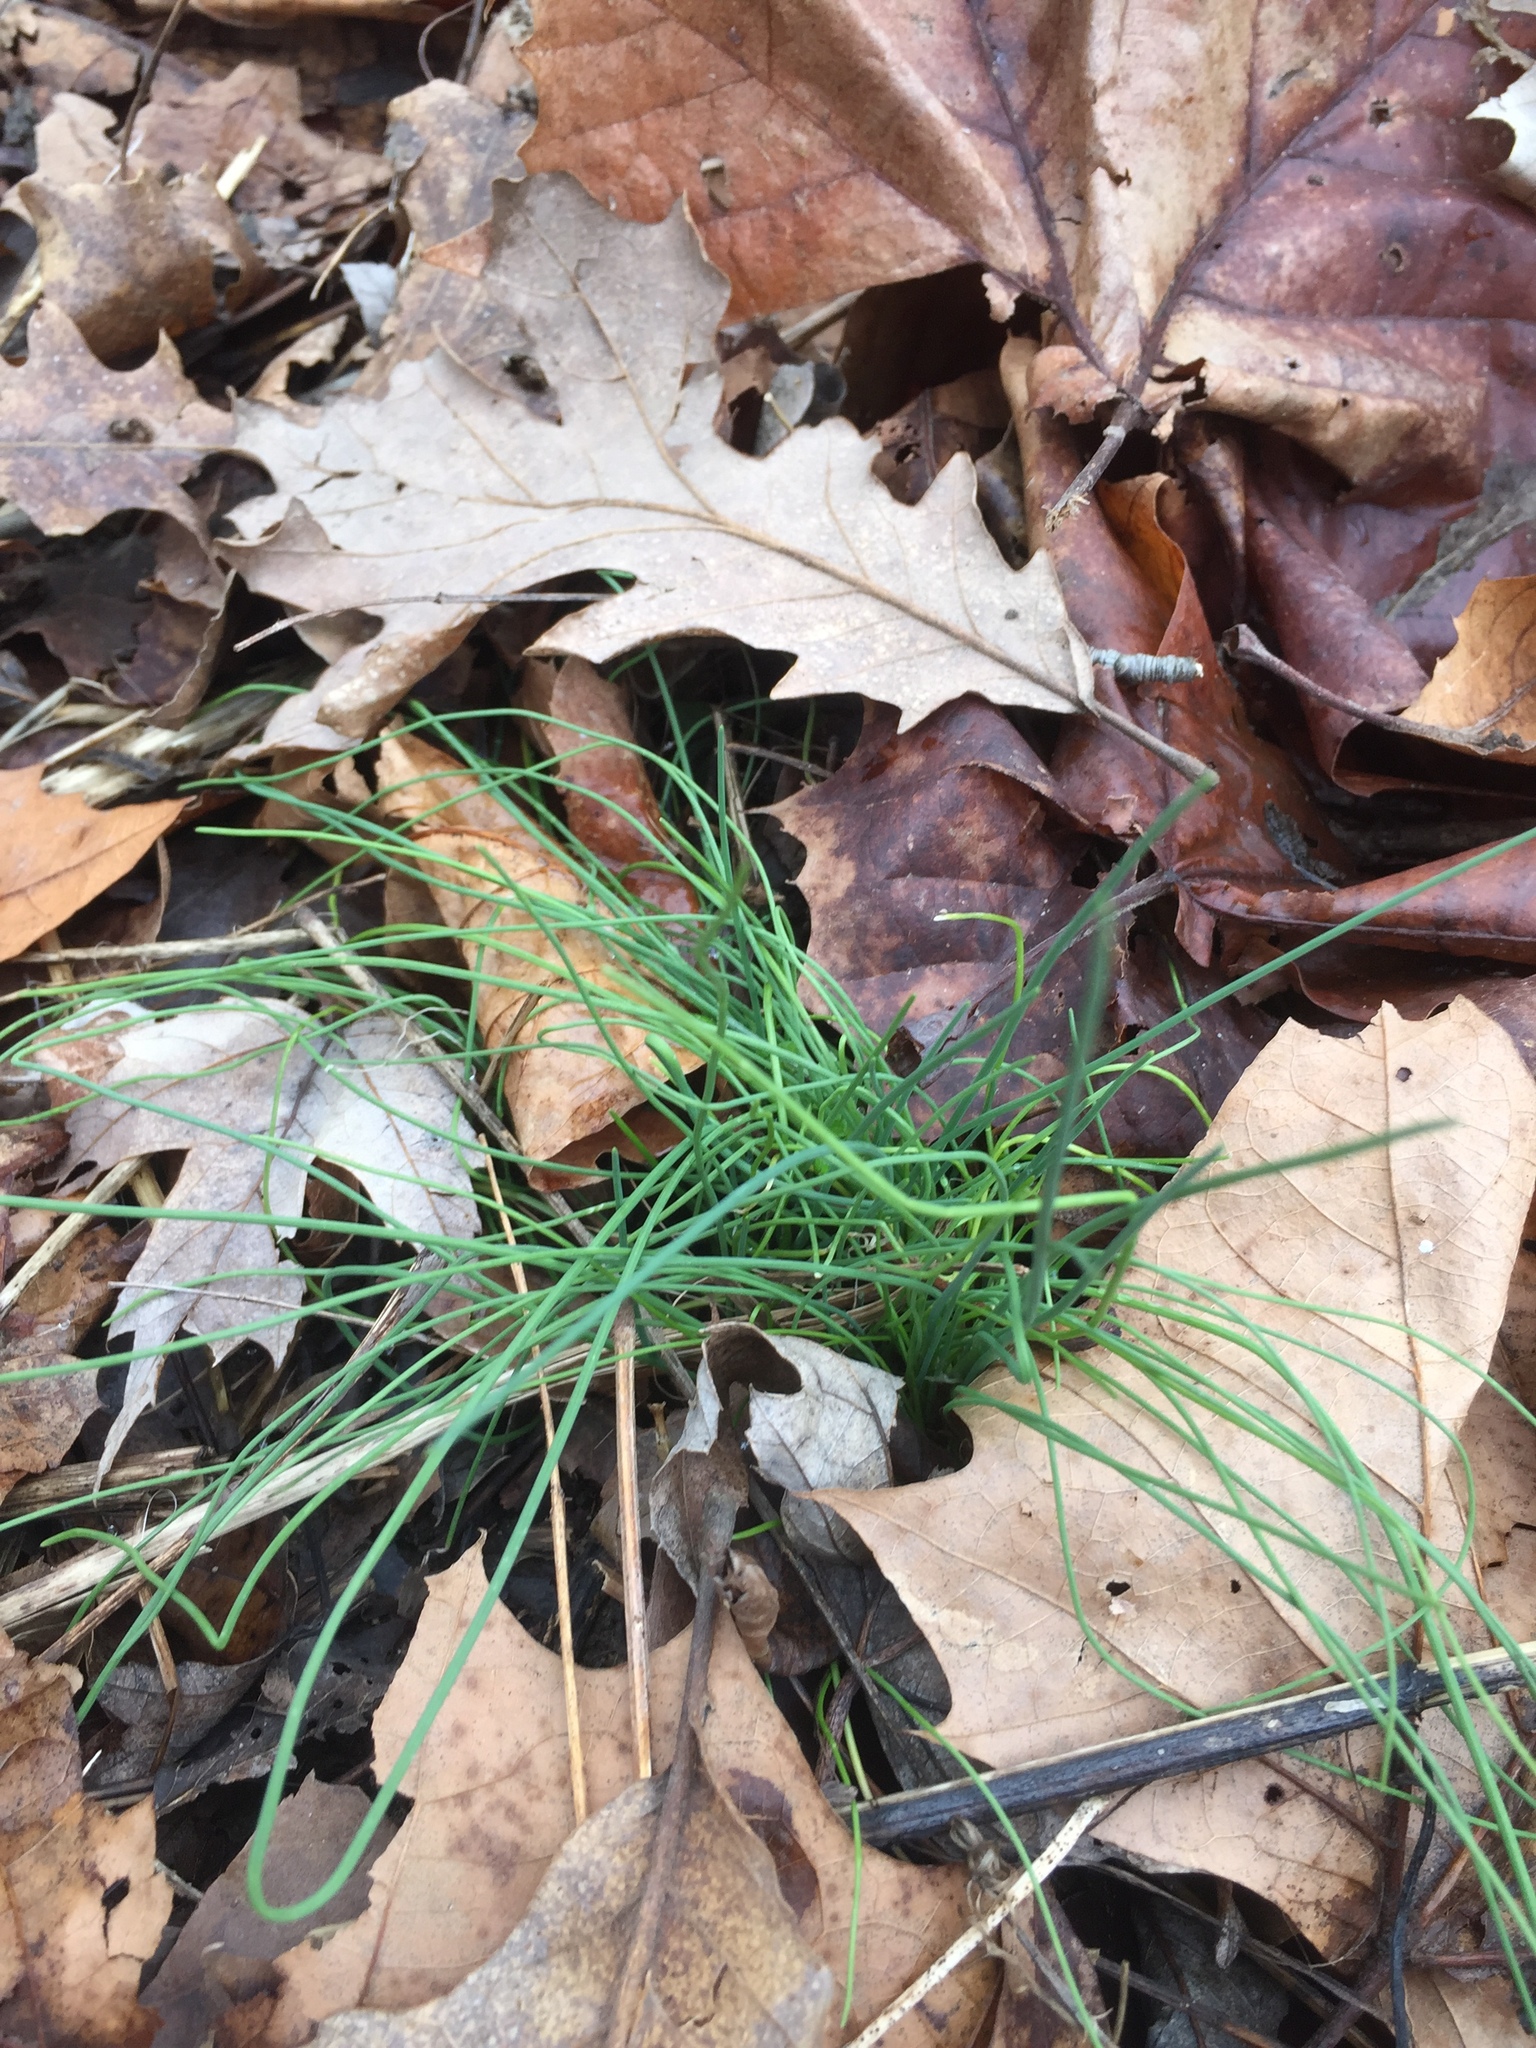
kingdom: Plantae
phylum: Tracheophyta
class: Liliopsida
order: Asparagales
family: Amaryllidaceae
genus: Allium
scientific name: Allium vineale
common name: Crow garlic
